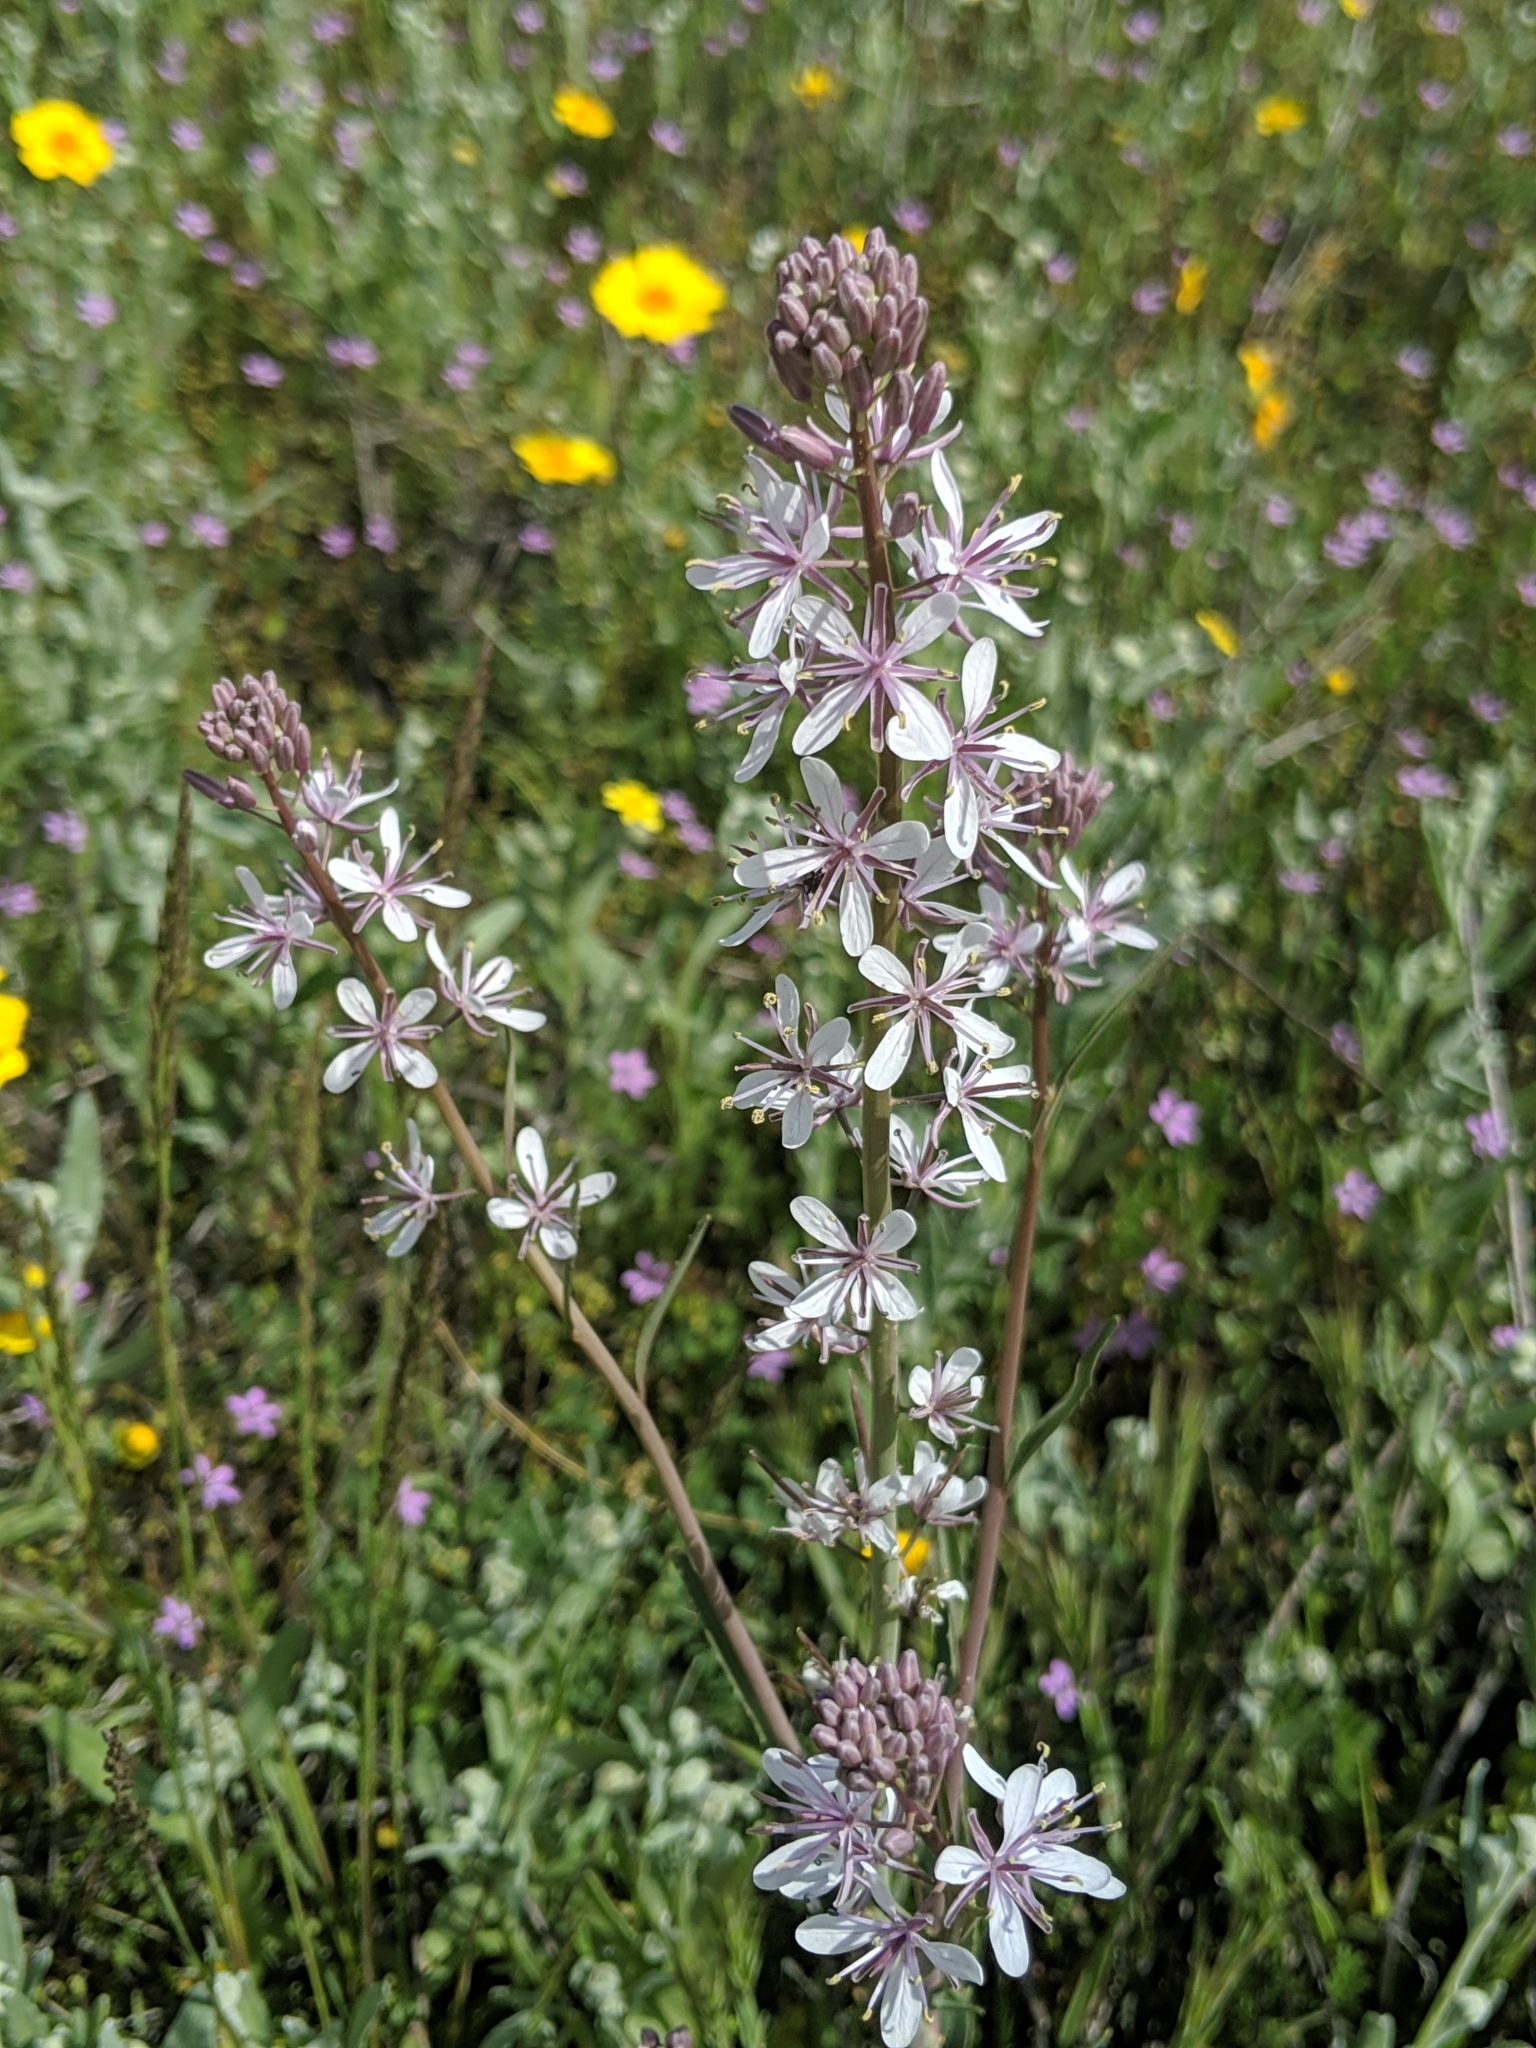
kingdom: Plantae
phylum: Tracheophyta
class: Magnoliopsida
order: Brassicales
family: Brassicaceae
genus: Streptanthus
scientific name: Streptanthus anceps
